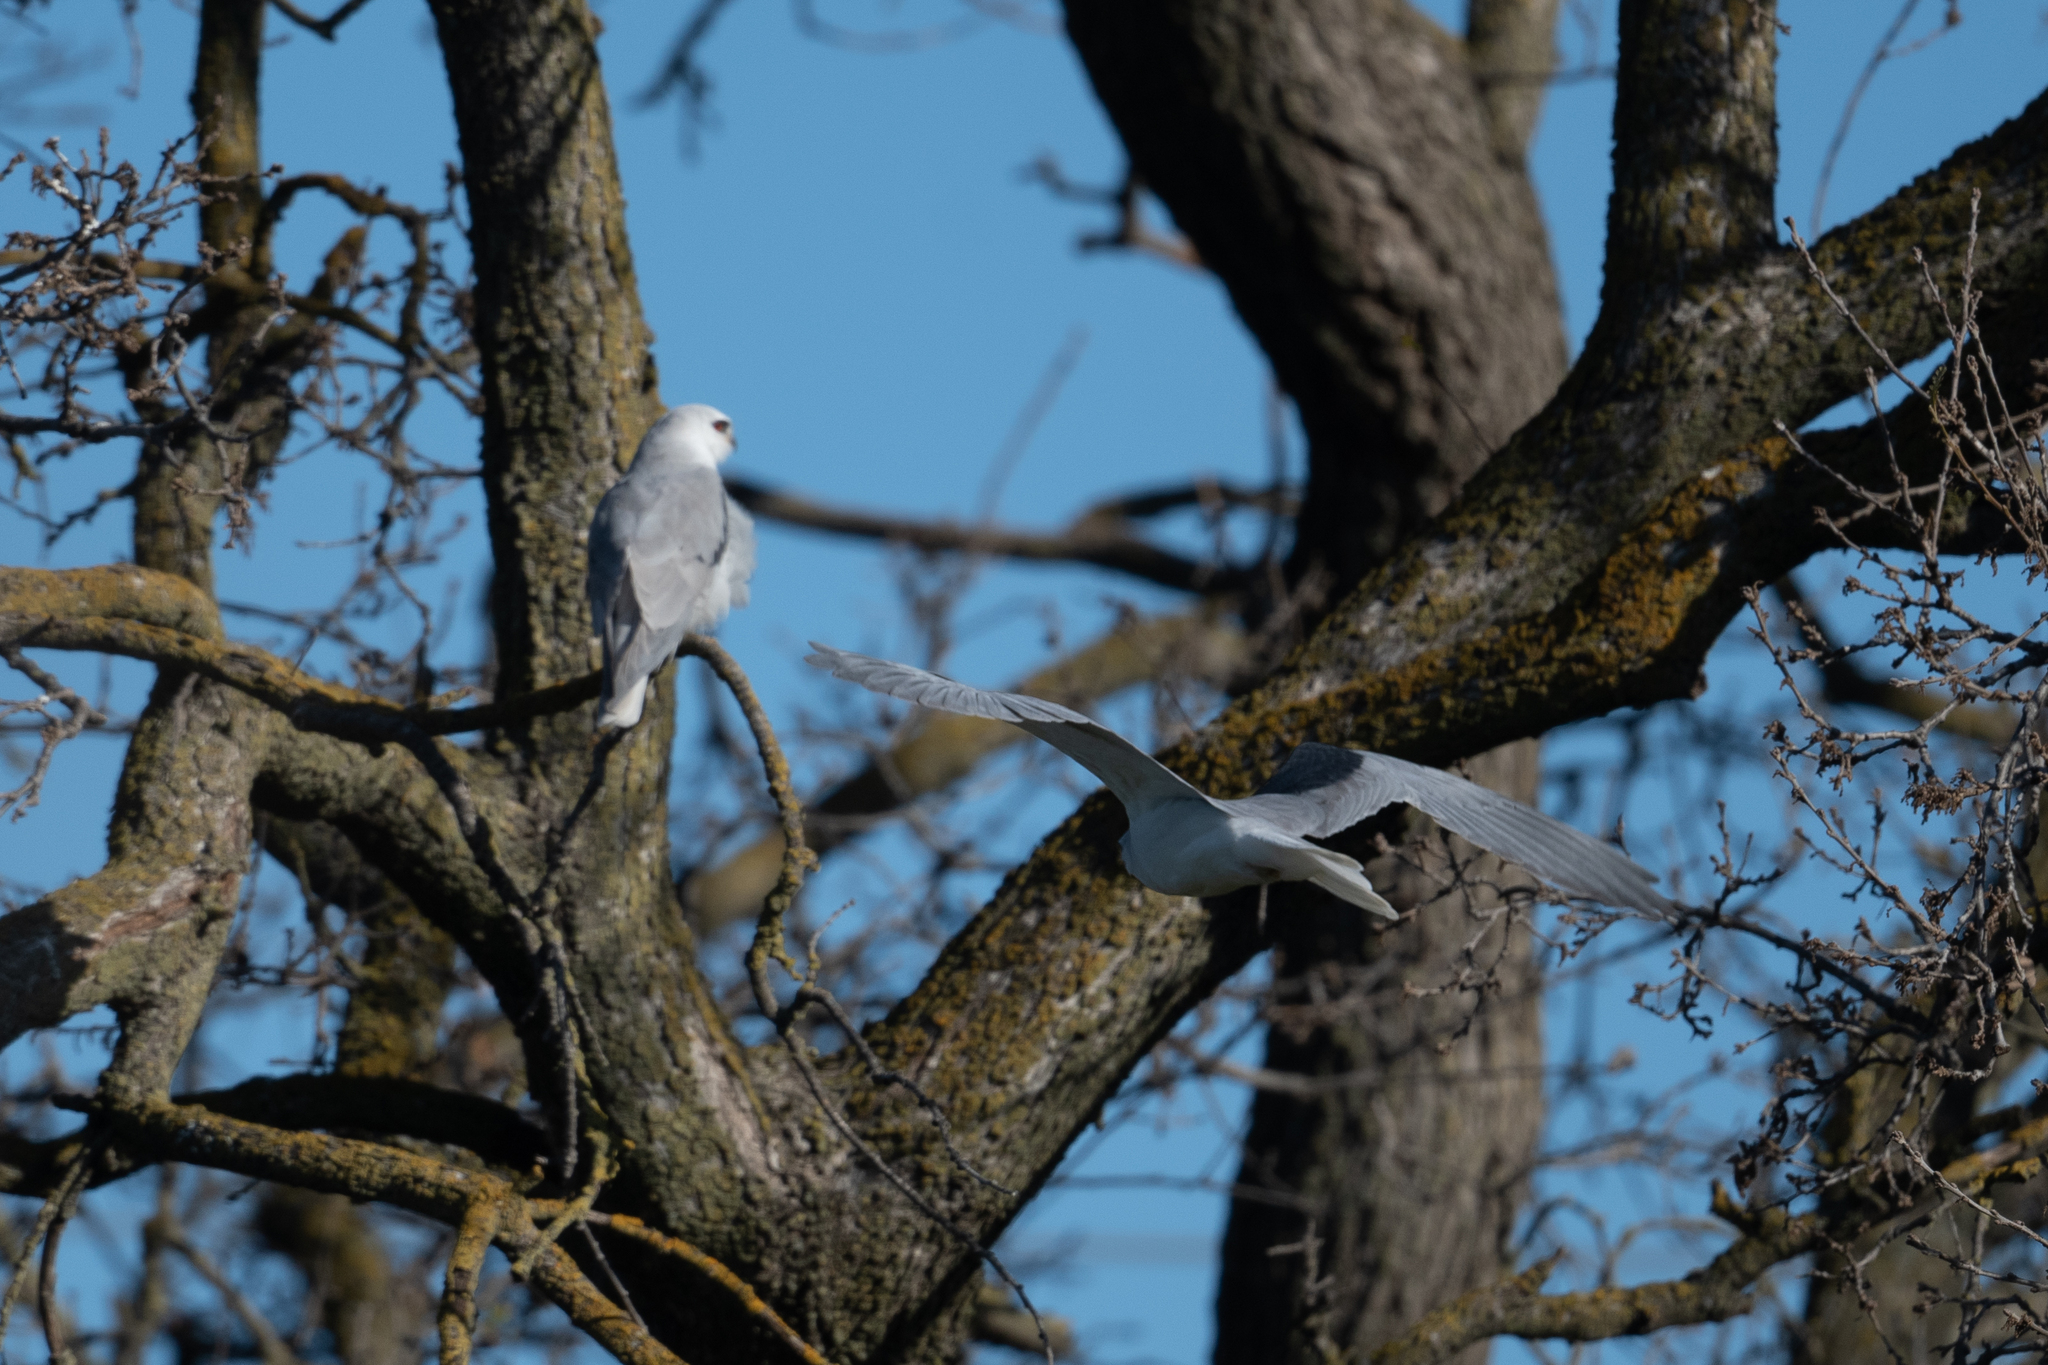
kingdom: Animalia
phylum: Chordata
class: Aves
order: Accipitriformes
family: Accipitridae
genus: Elanus
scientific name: Elanus leucurus
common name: White-tailed kite
